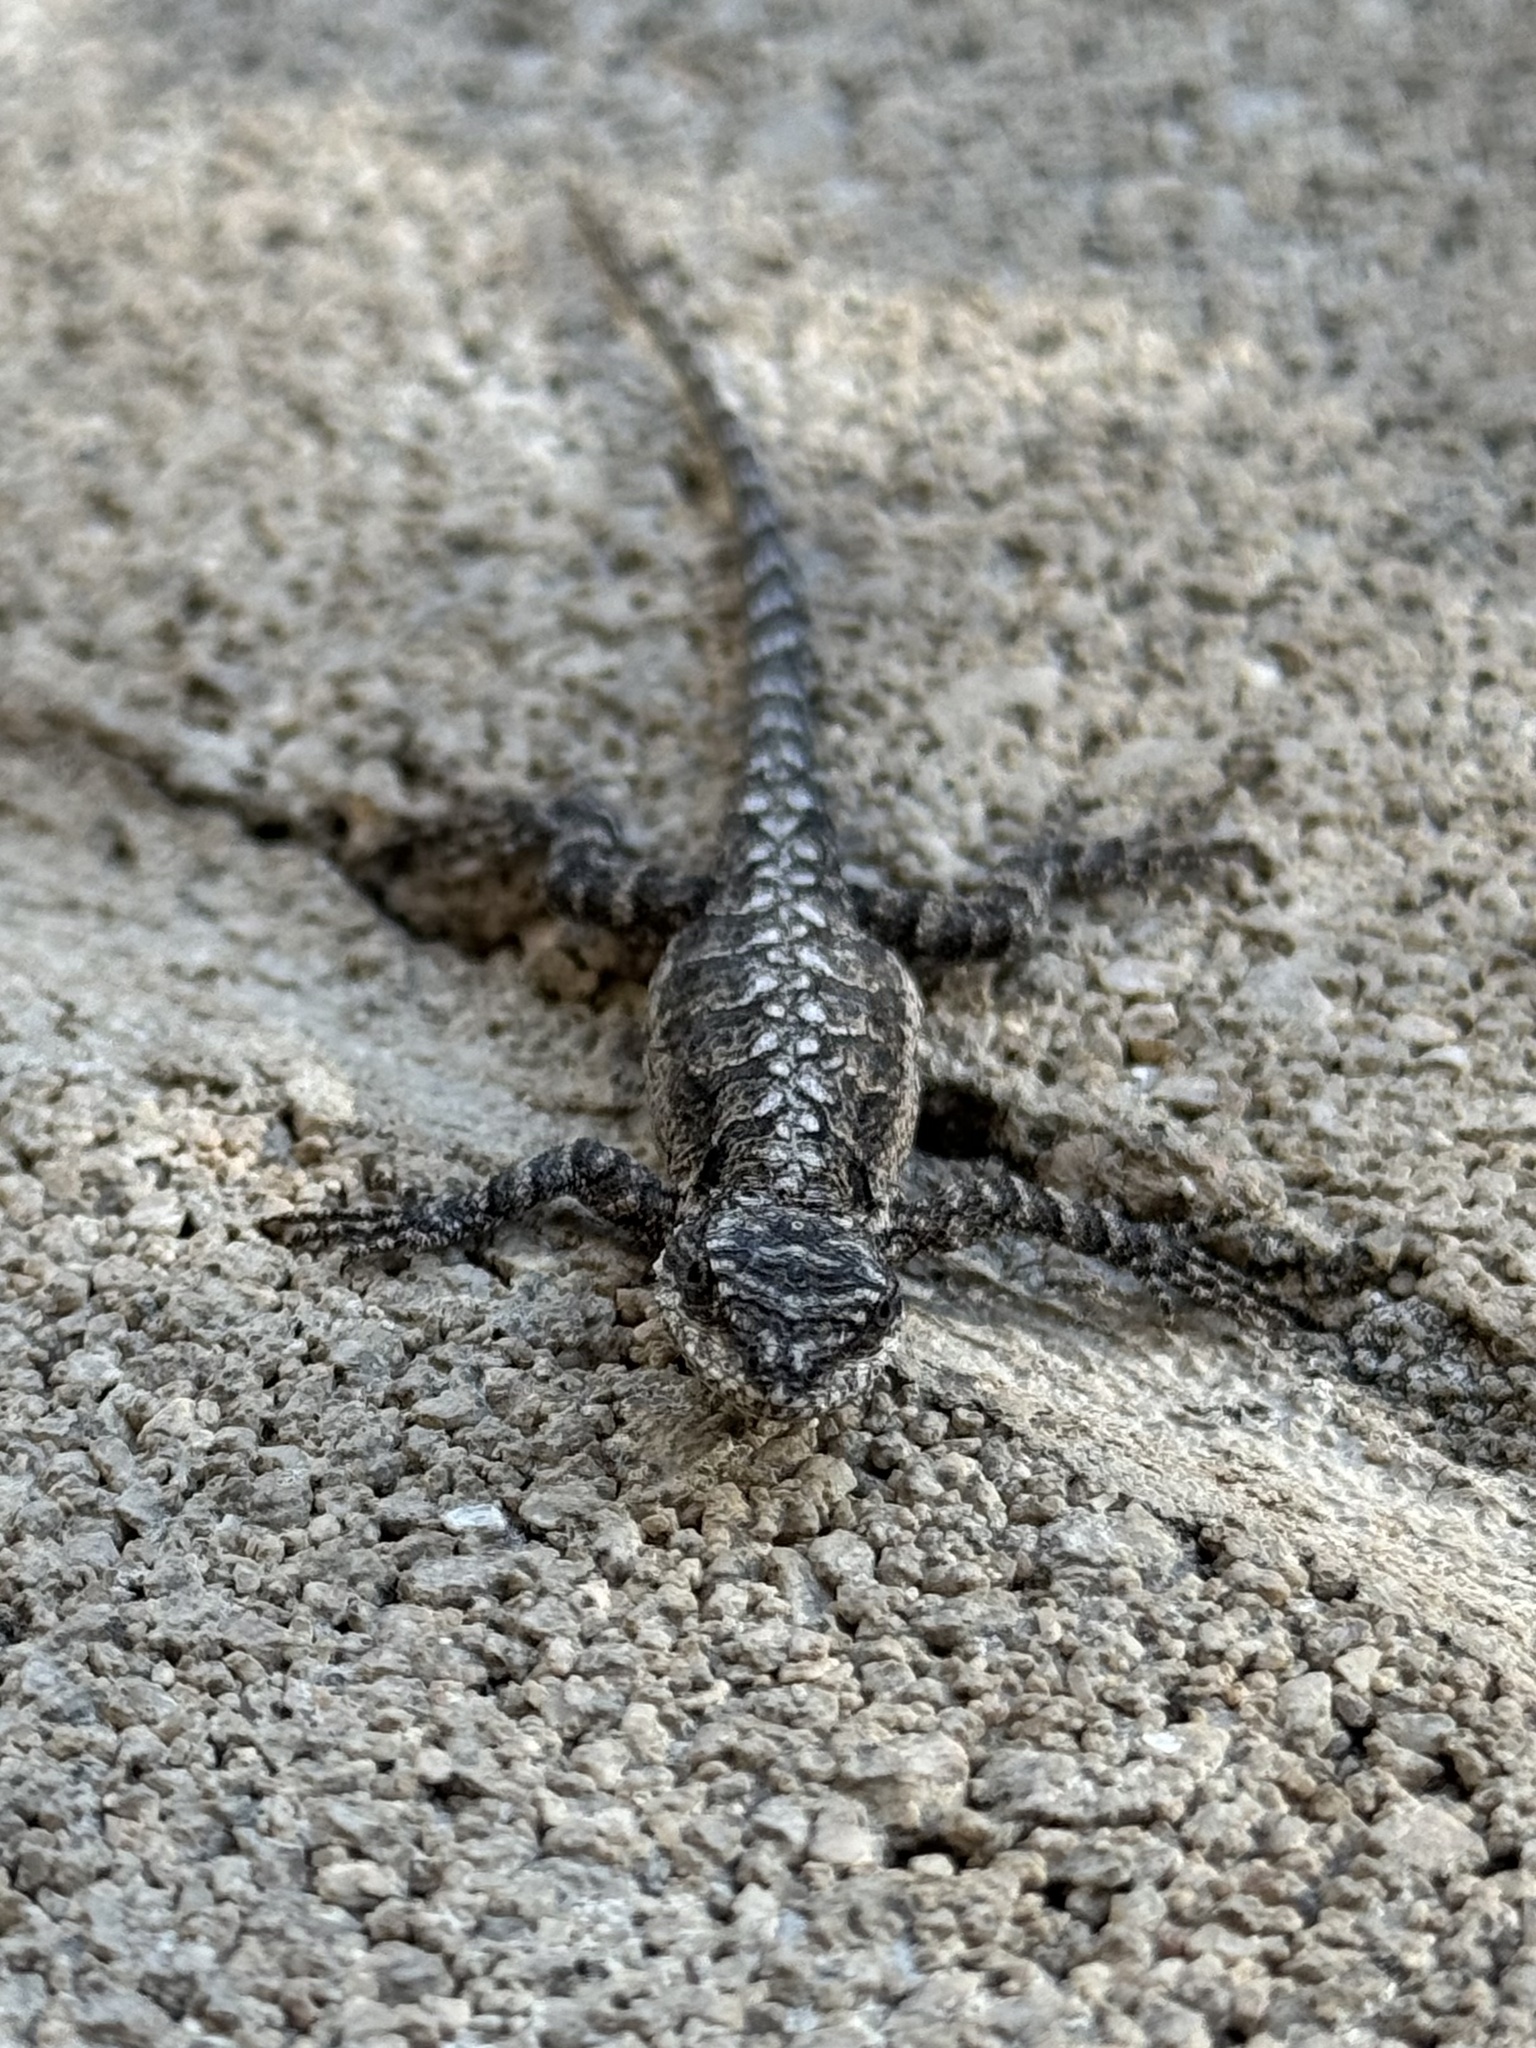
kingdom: Animalia
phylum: Chordata
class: Squamata
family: Phrynosomatidae
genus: Urosaurus
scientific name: Urosaurus ornatus
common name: Ornate tree lizard
